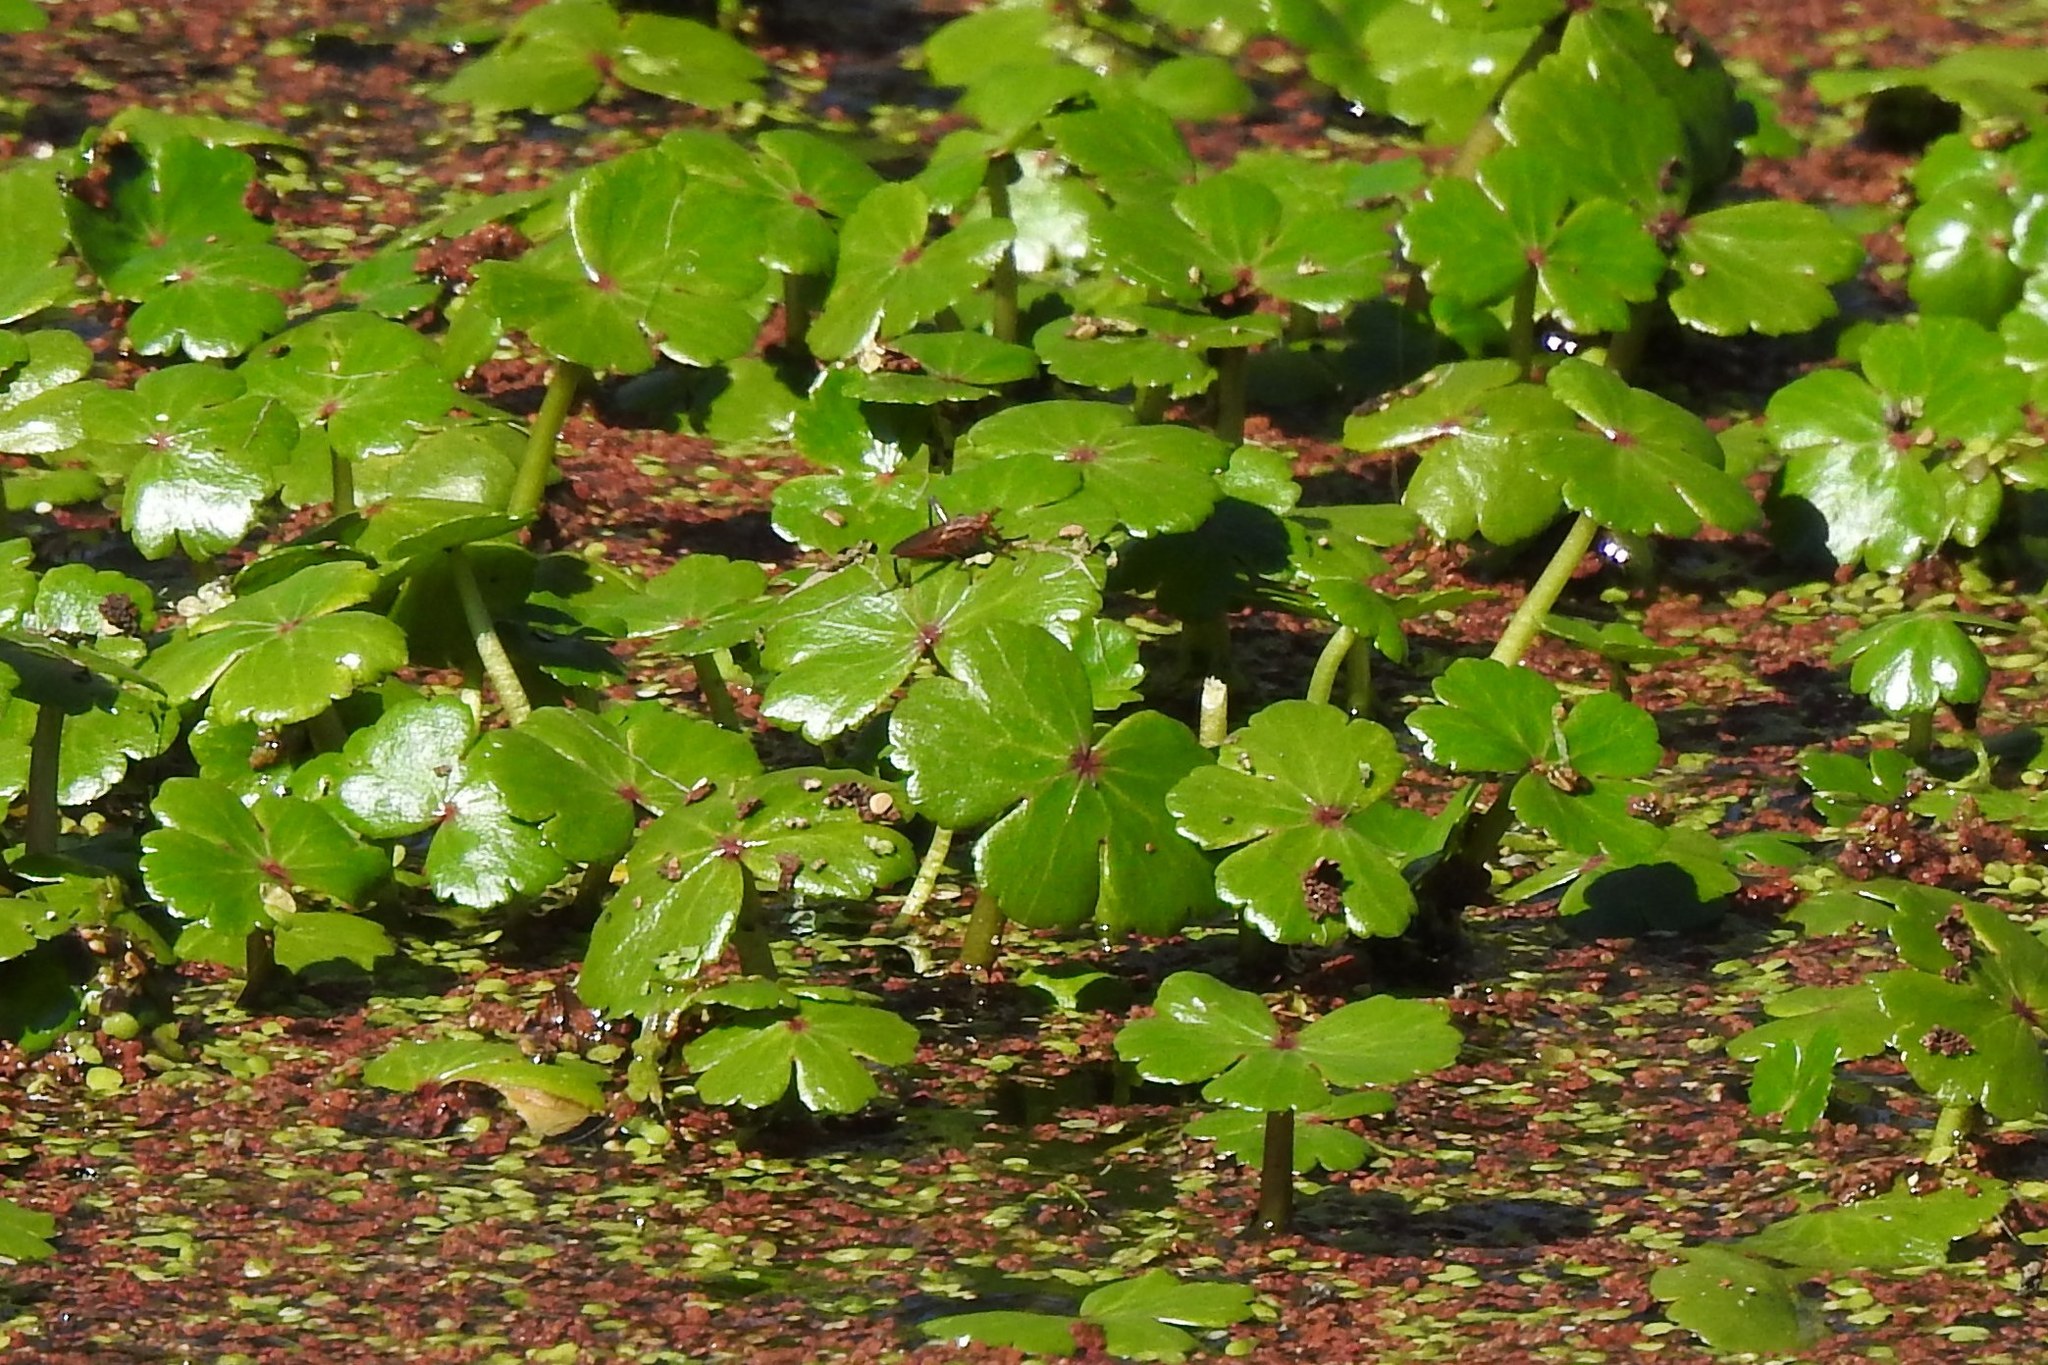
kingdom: Plantae
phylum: Tracheophyta
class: Magnoliopsida
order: Apiales
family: Araliaceae
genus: Hydrocotyle
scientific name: Hydrocotyle ranunculoides
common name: Floating pennywort
